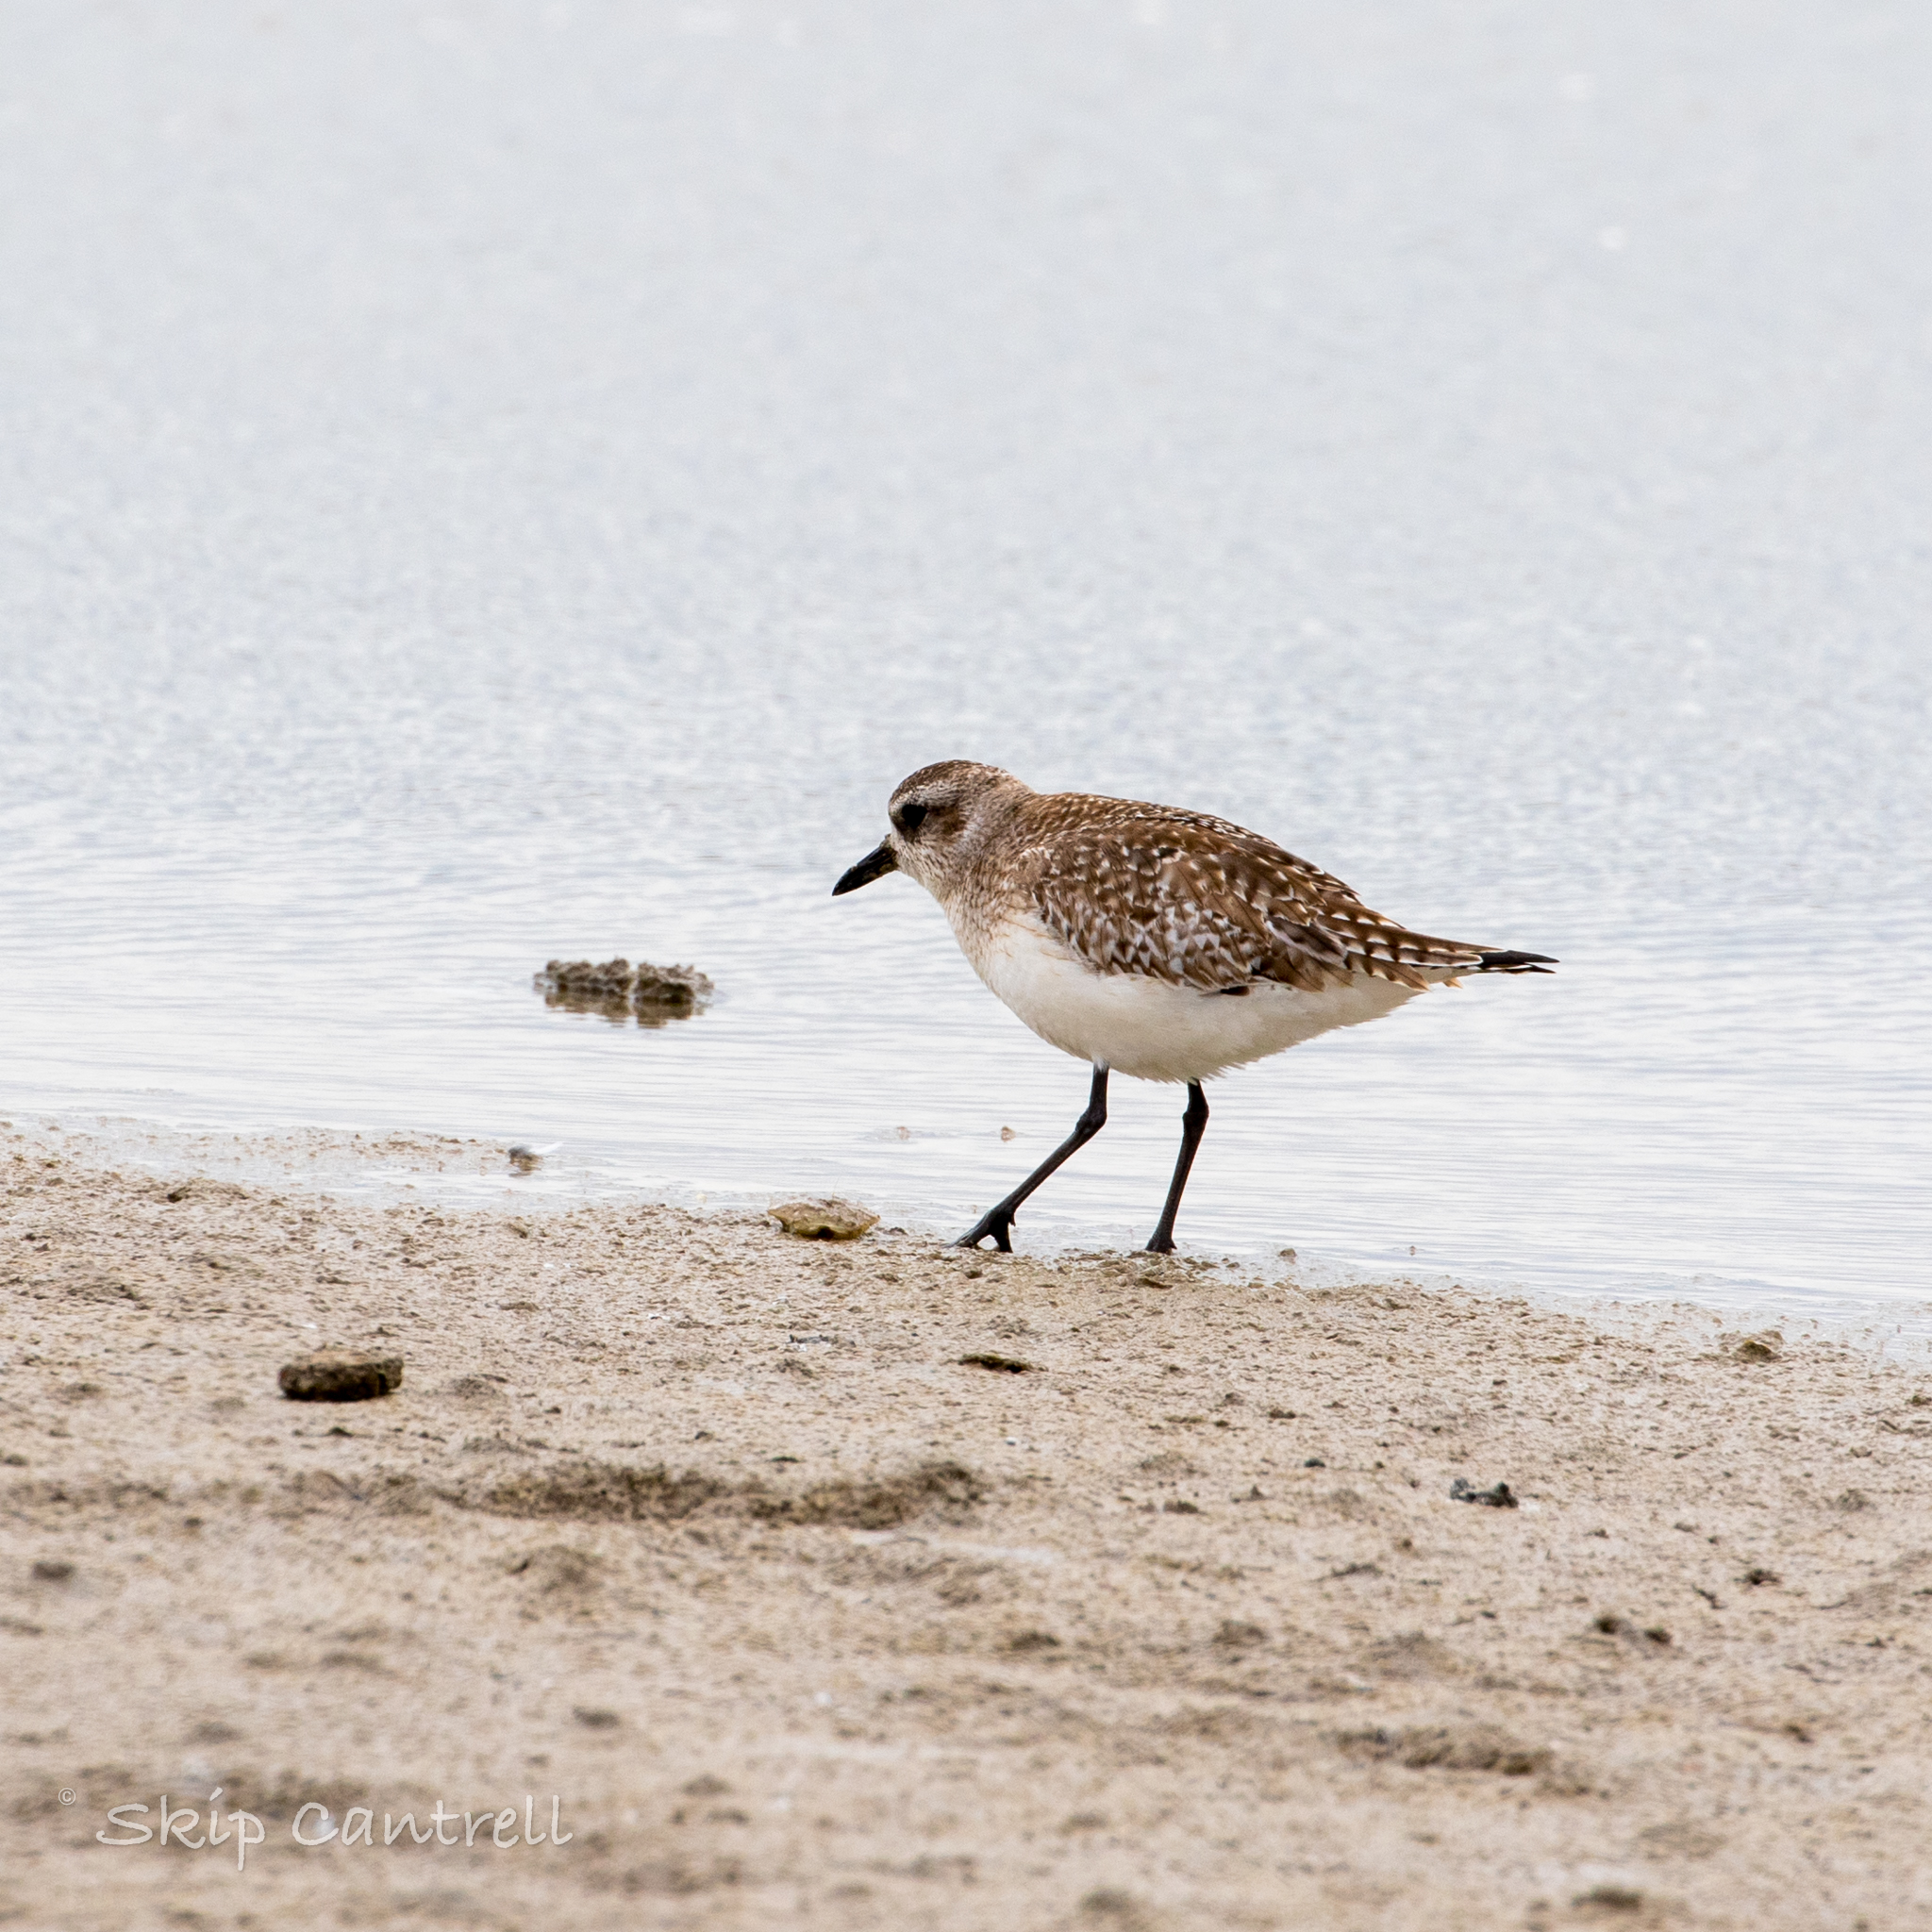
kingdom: Animalia
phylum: Chordata
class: Aves
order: Charadriiformes
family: Charadriidae
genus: Pluvialis
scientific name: Pluvialis squatarola
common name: Grey plover
